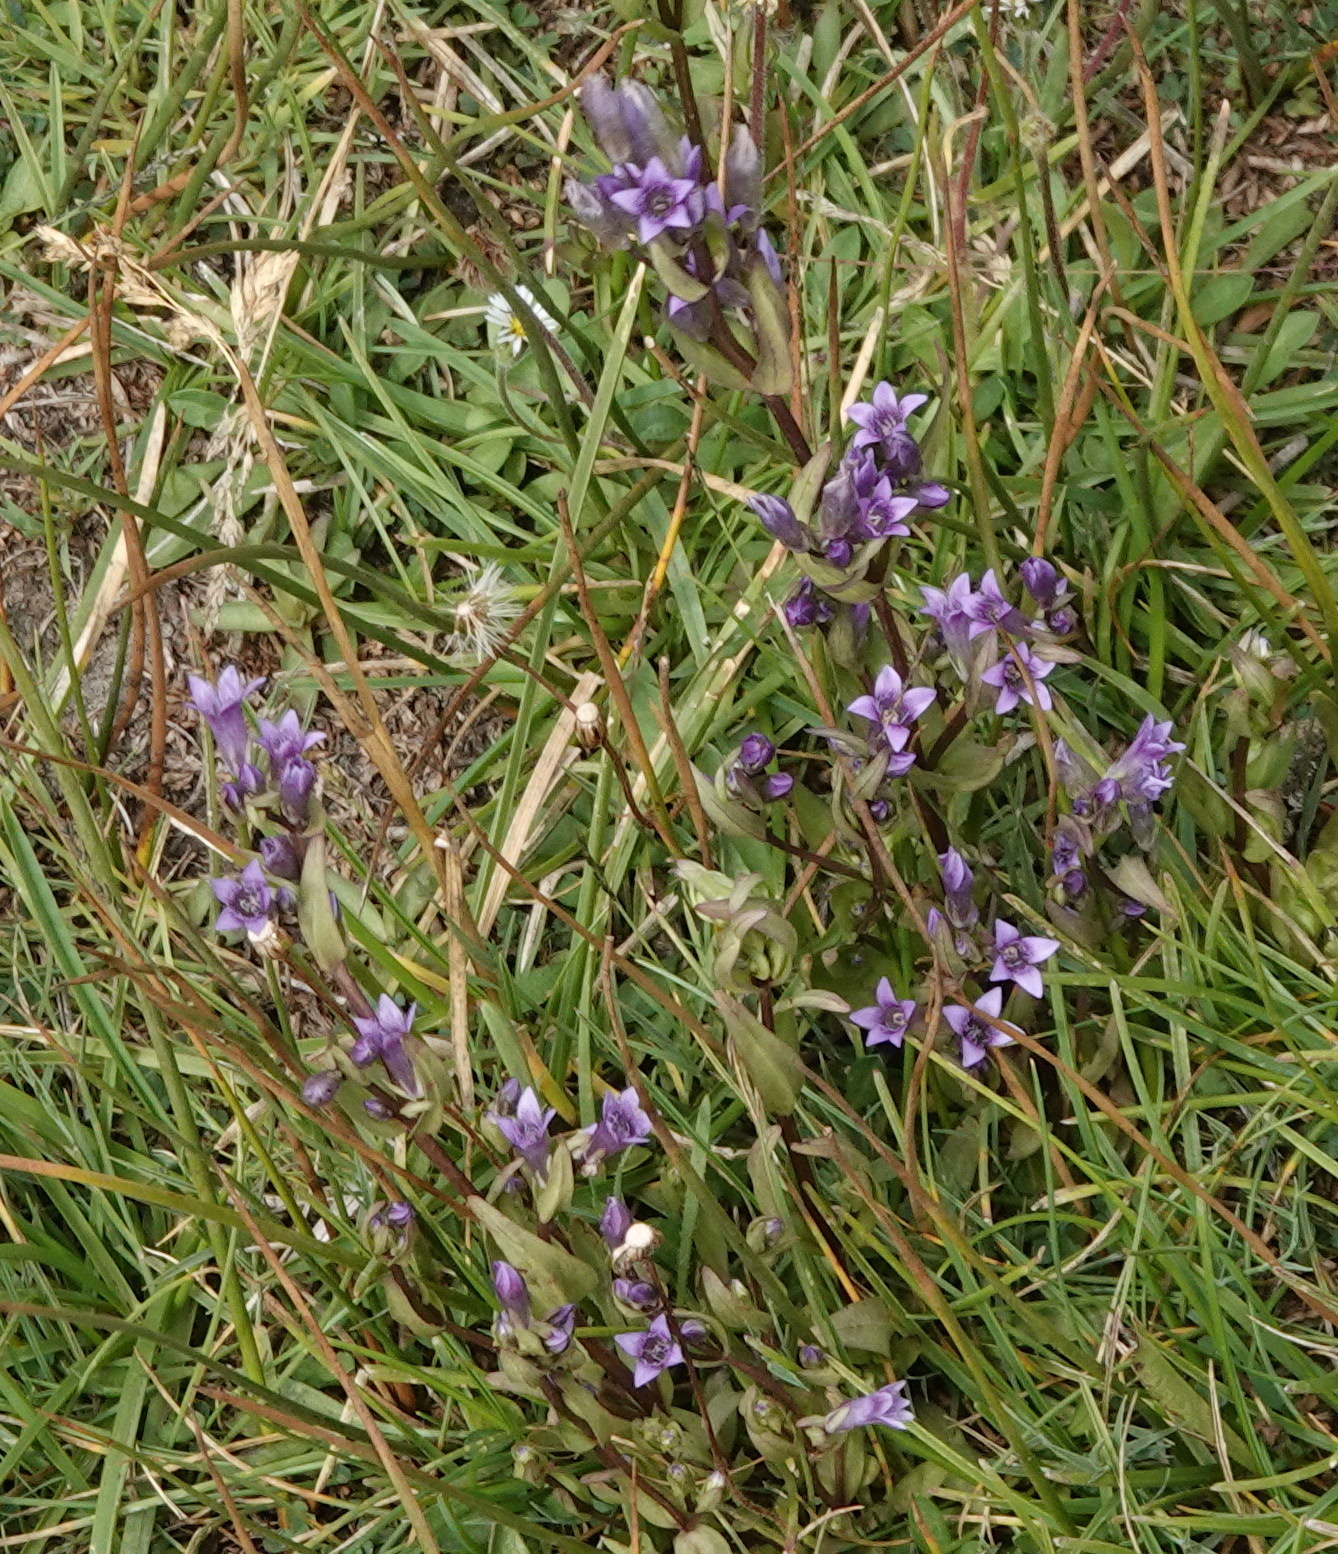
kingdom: Plantae
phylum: Tracheophyta
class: Magnoliopsida
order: Gentianales
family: Gentianaceae
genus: Gentianella
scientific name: Gentianella amarella
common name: Autumn gentian
